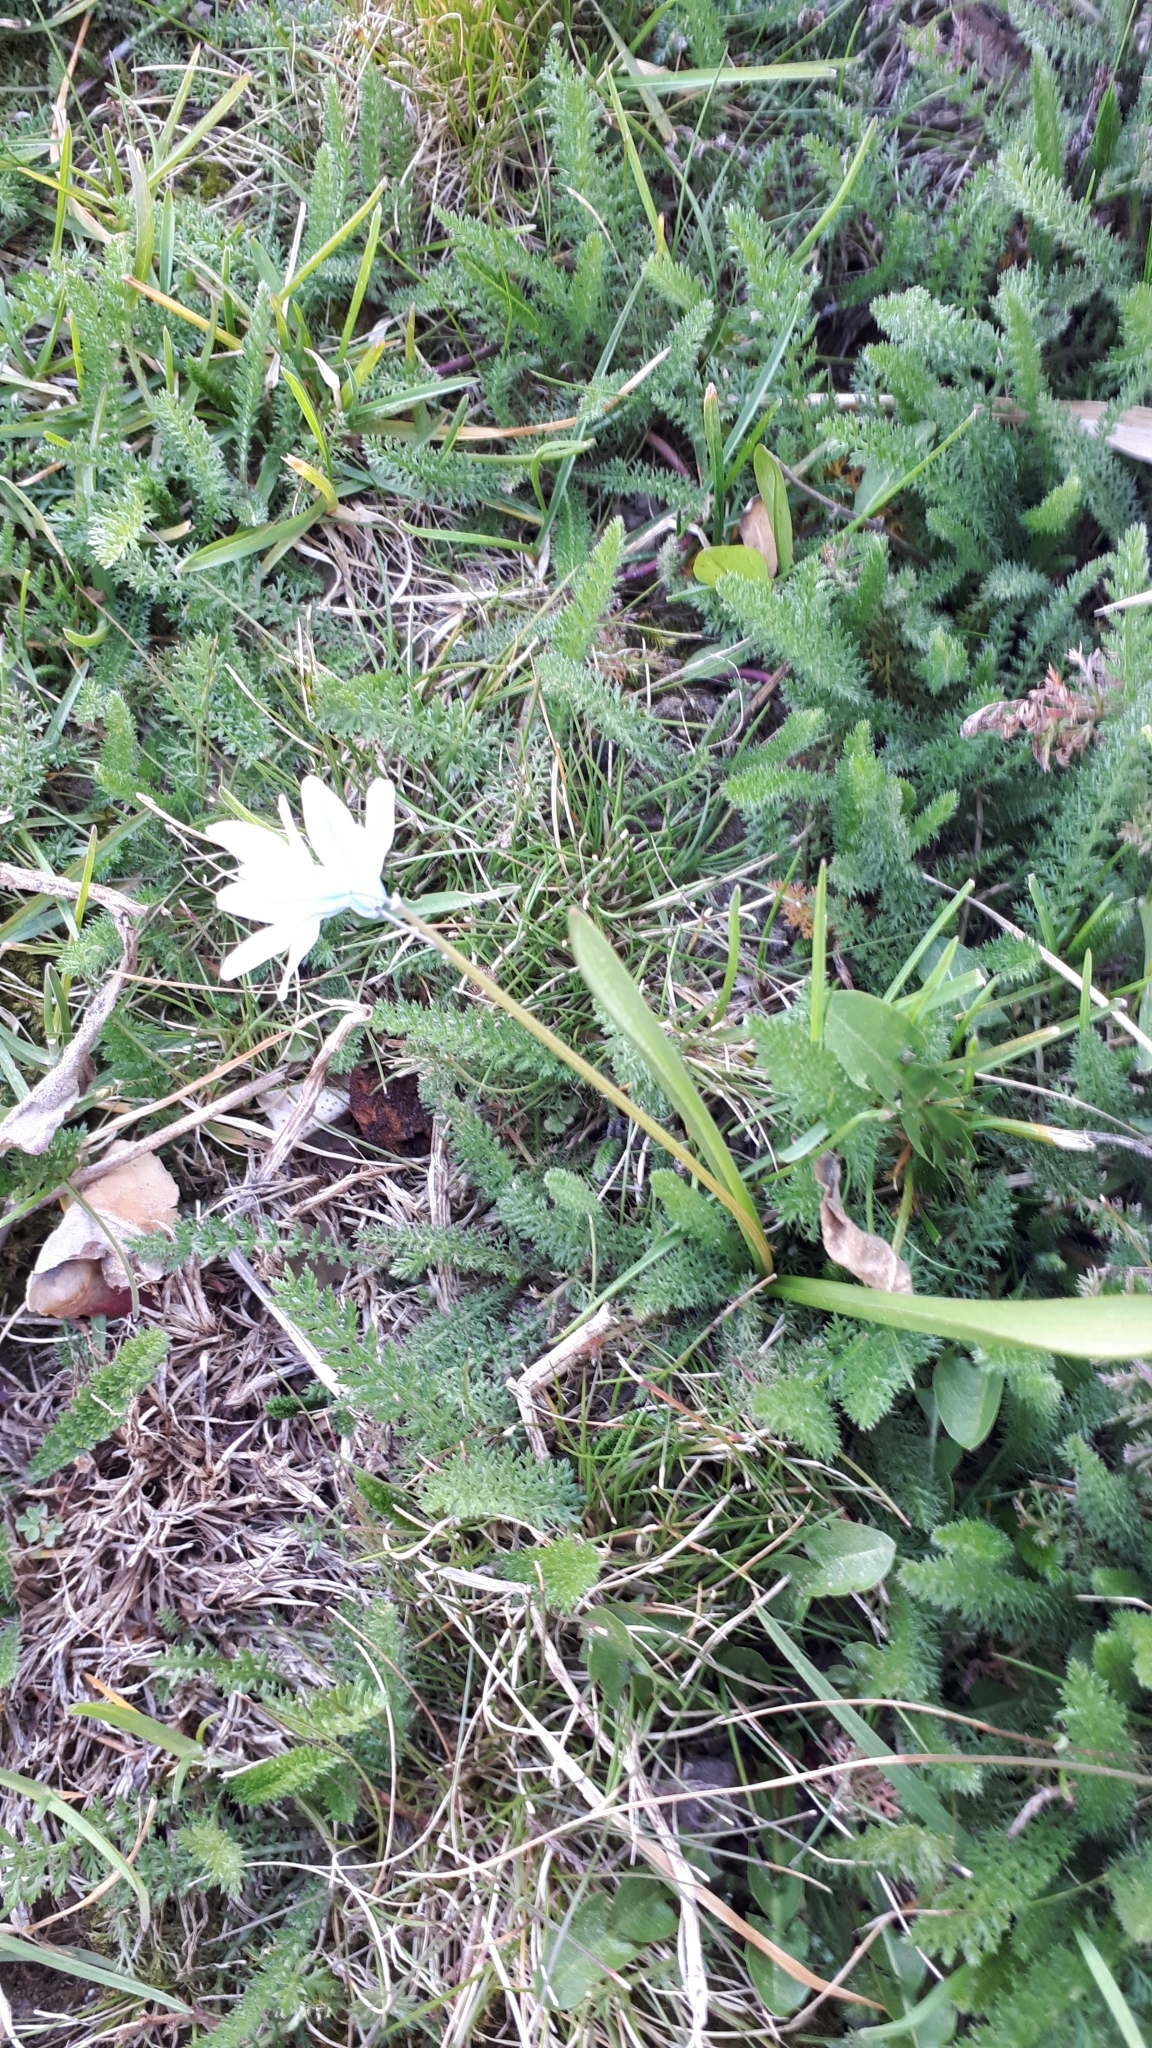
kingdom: Plantae
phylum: Tracheophyta
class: Liliopsida
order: Asparagales
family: Asparagaceae
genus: Puschkinia
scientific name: Puschkinia scilloides
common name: Striped squill
